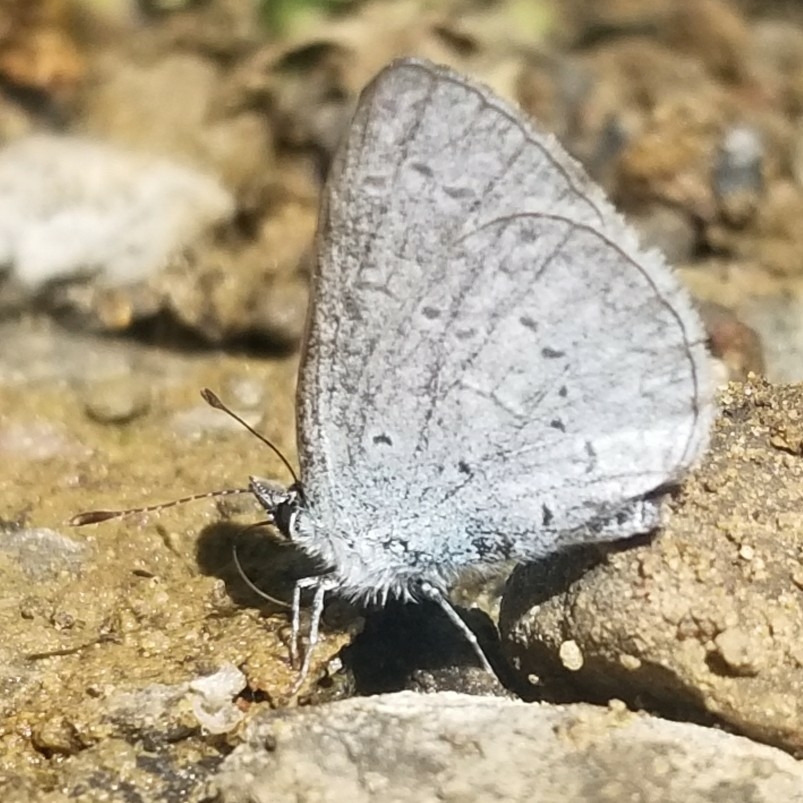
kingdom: Animalia
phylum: Arthropoda
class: Insecta
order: Lepidoptera
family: Lycaenidae
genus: Celastrina
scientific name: Celastrina ladon
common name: Spring azure
